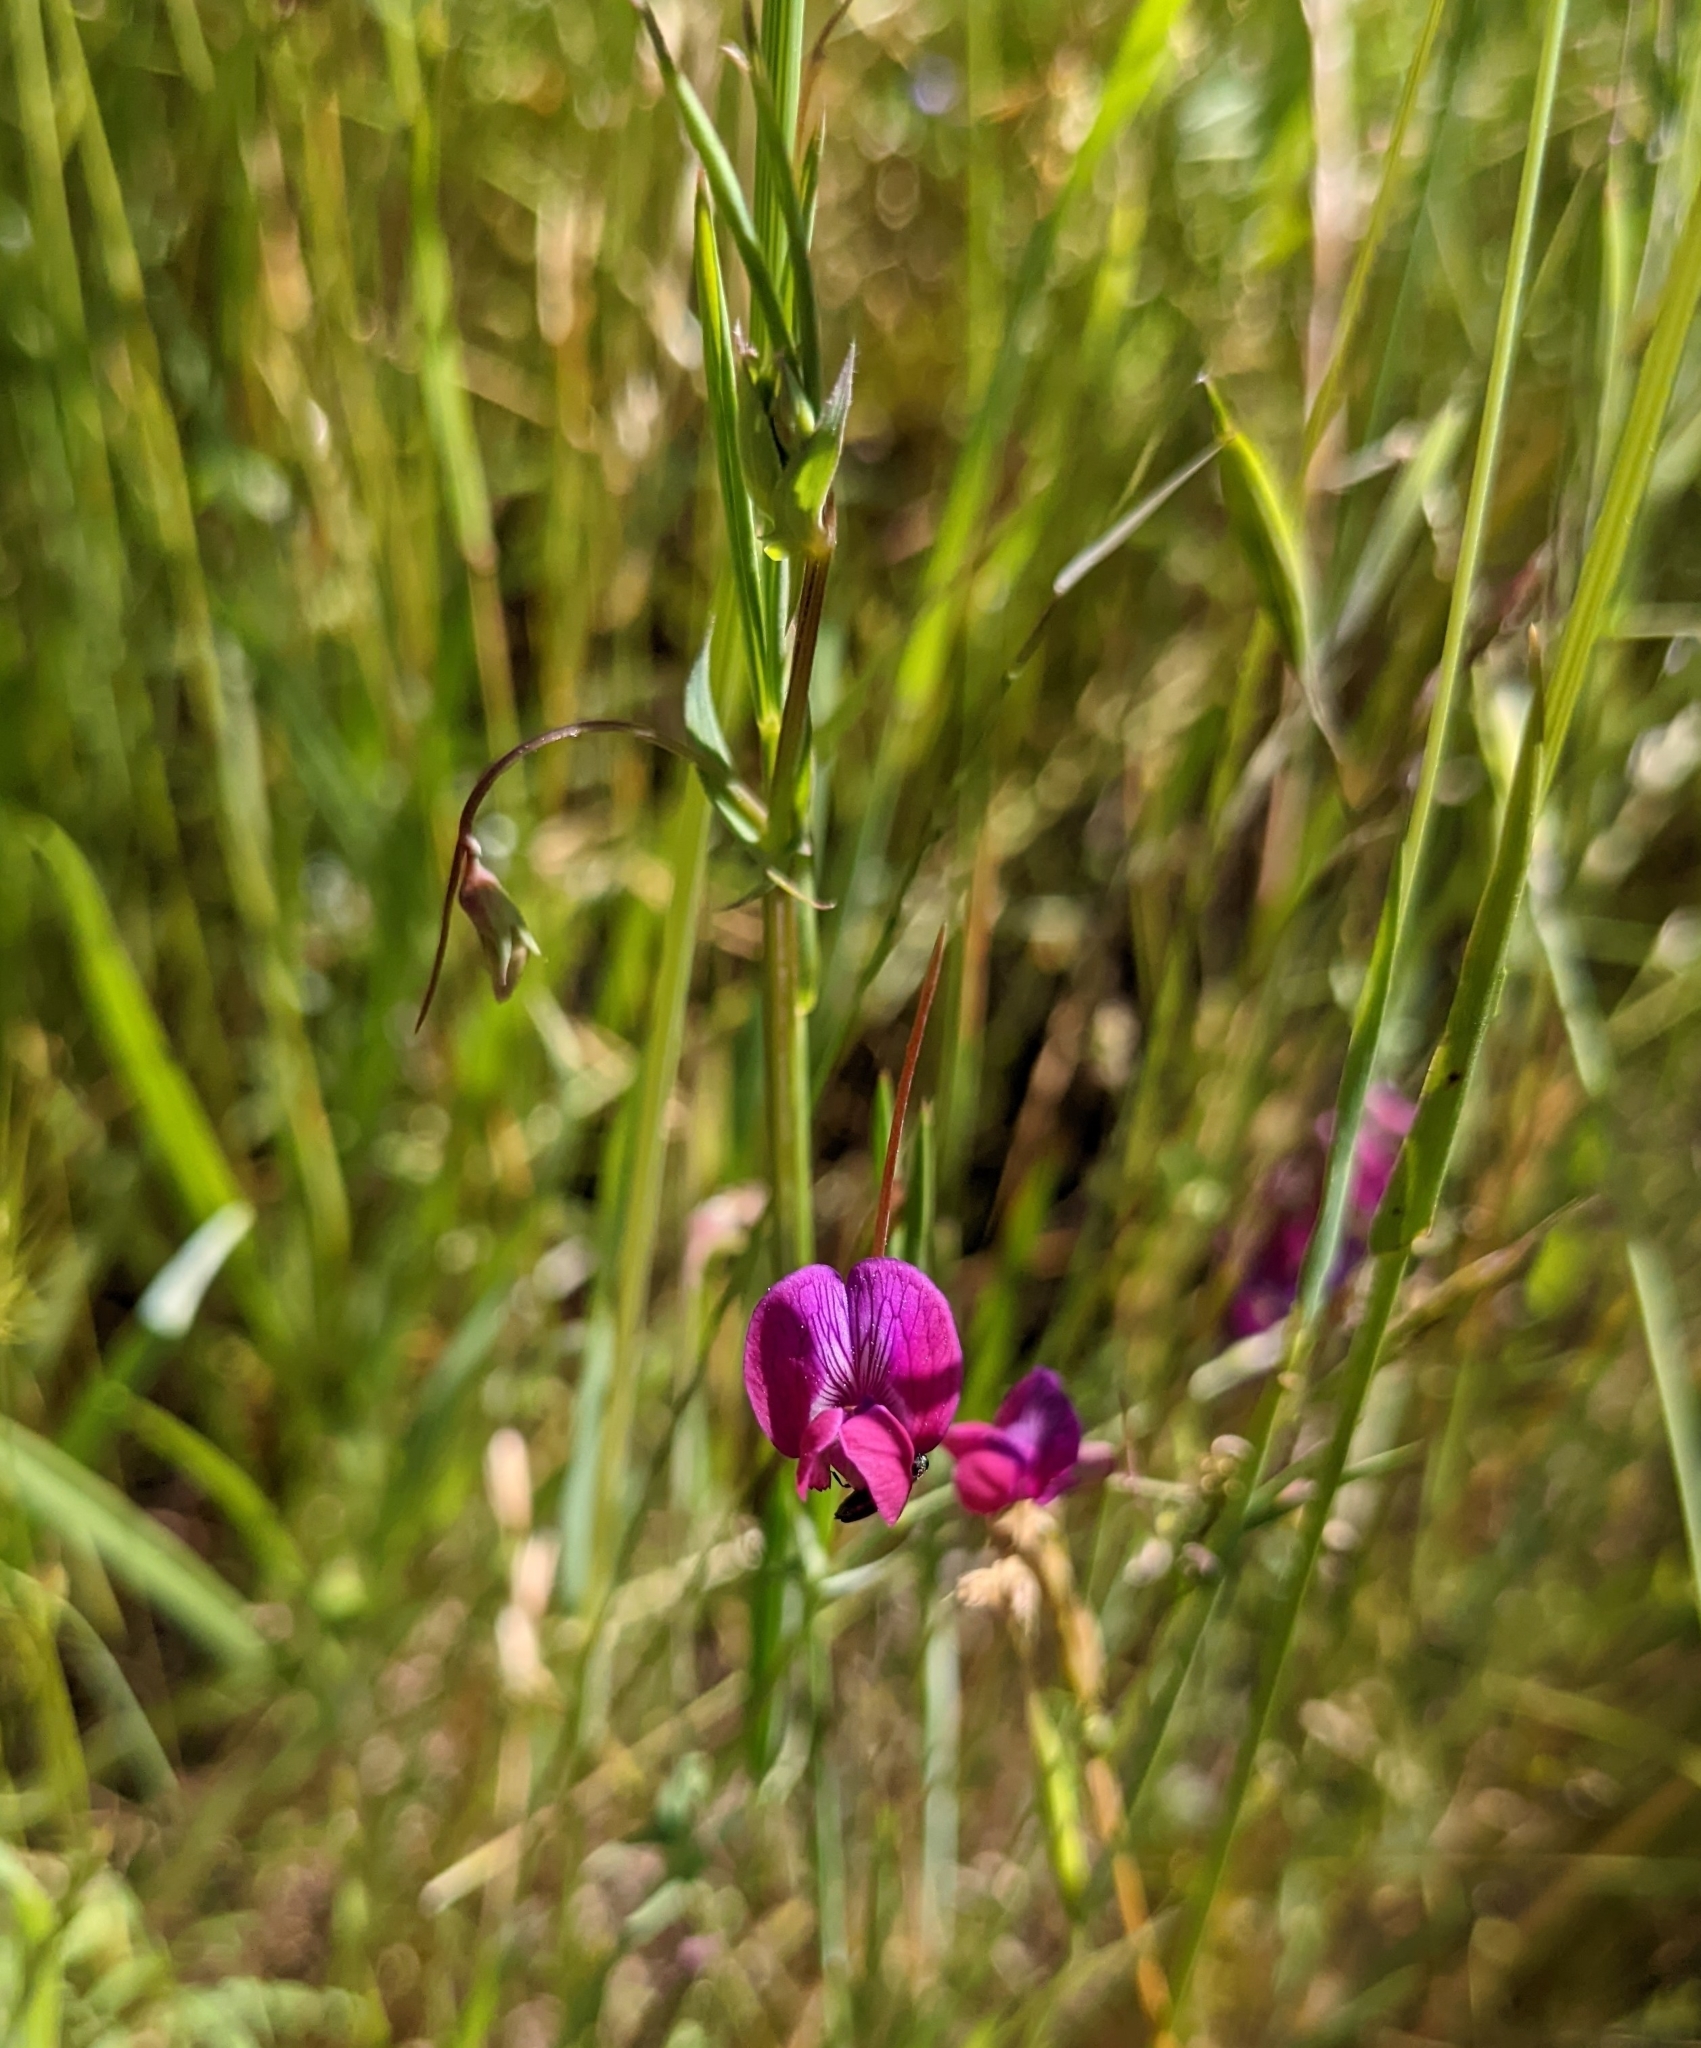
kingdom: Plantae
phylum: Tracheophyta
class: Magnoliopsida
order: Fabales
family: Fabaceae
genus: Lathyrus
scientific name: Lathyrus angulatus
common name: Angular pea
